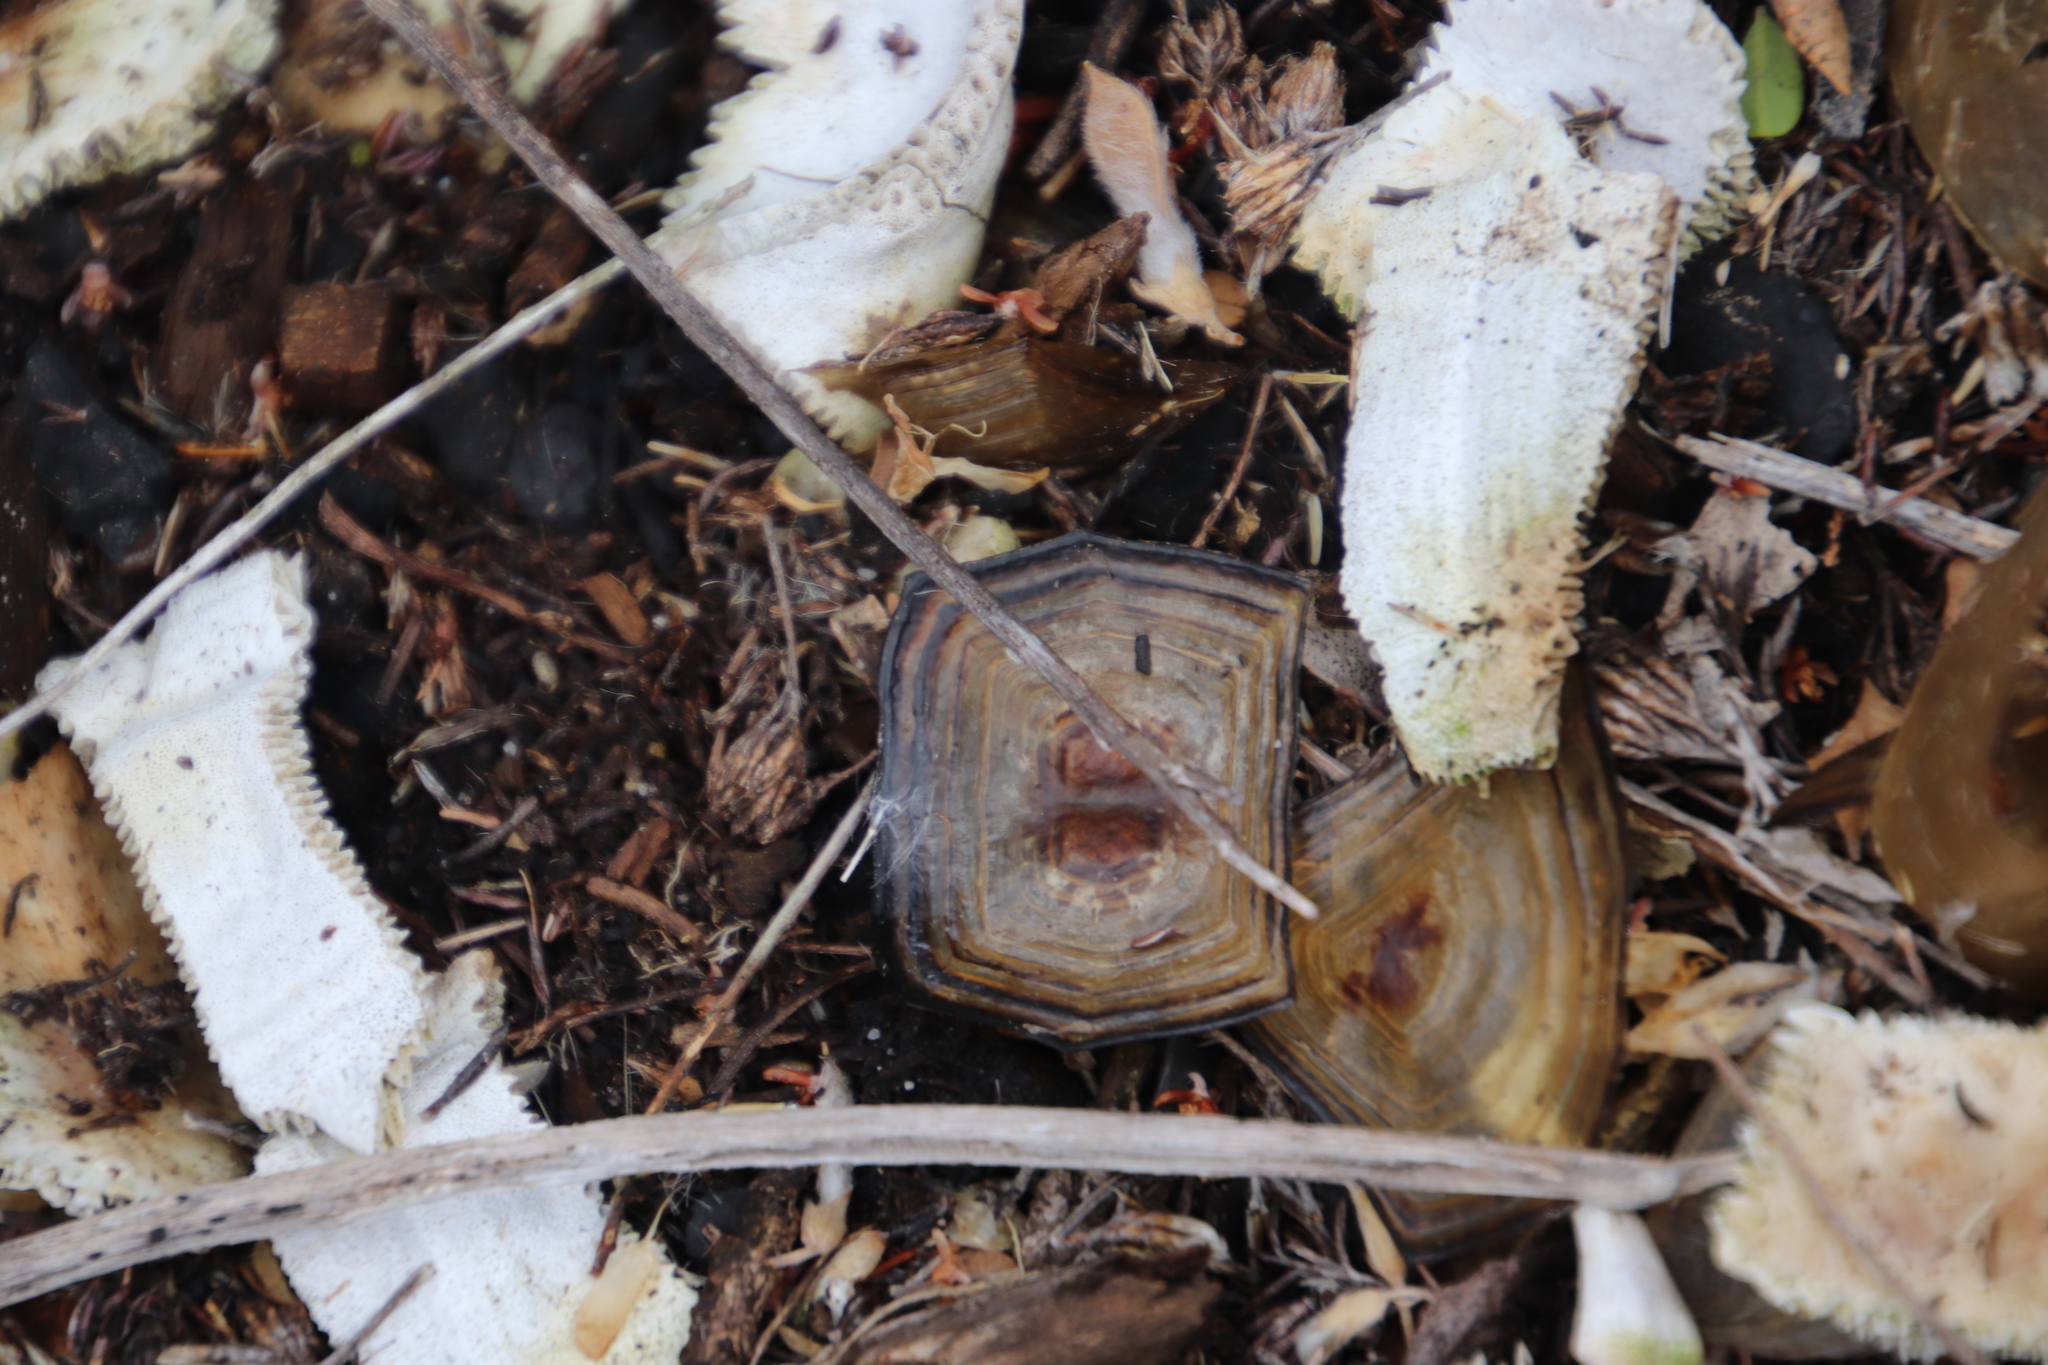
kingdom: Animalia
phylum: Chordata
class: Testudines
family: Testudinidae
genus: Chersina
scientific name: Chersina angulata
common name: South african bowsprit tortoise
